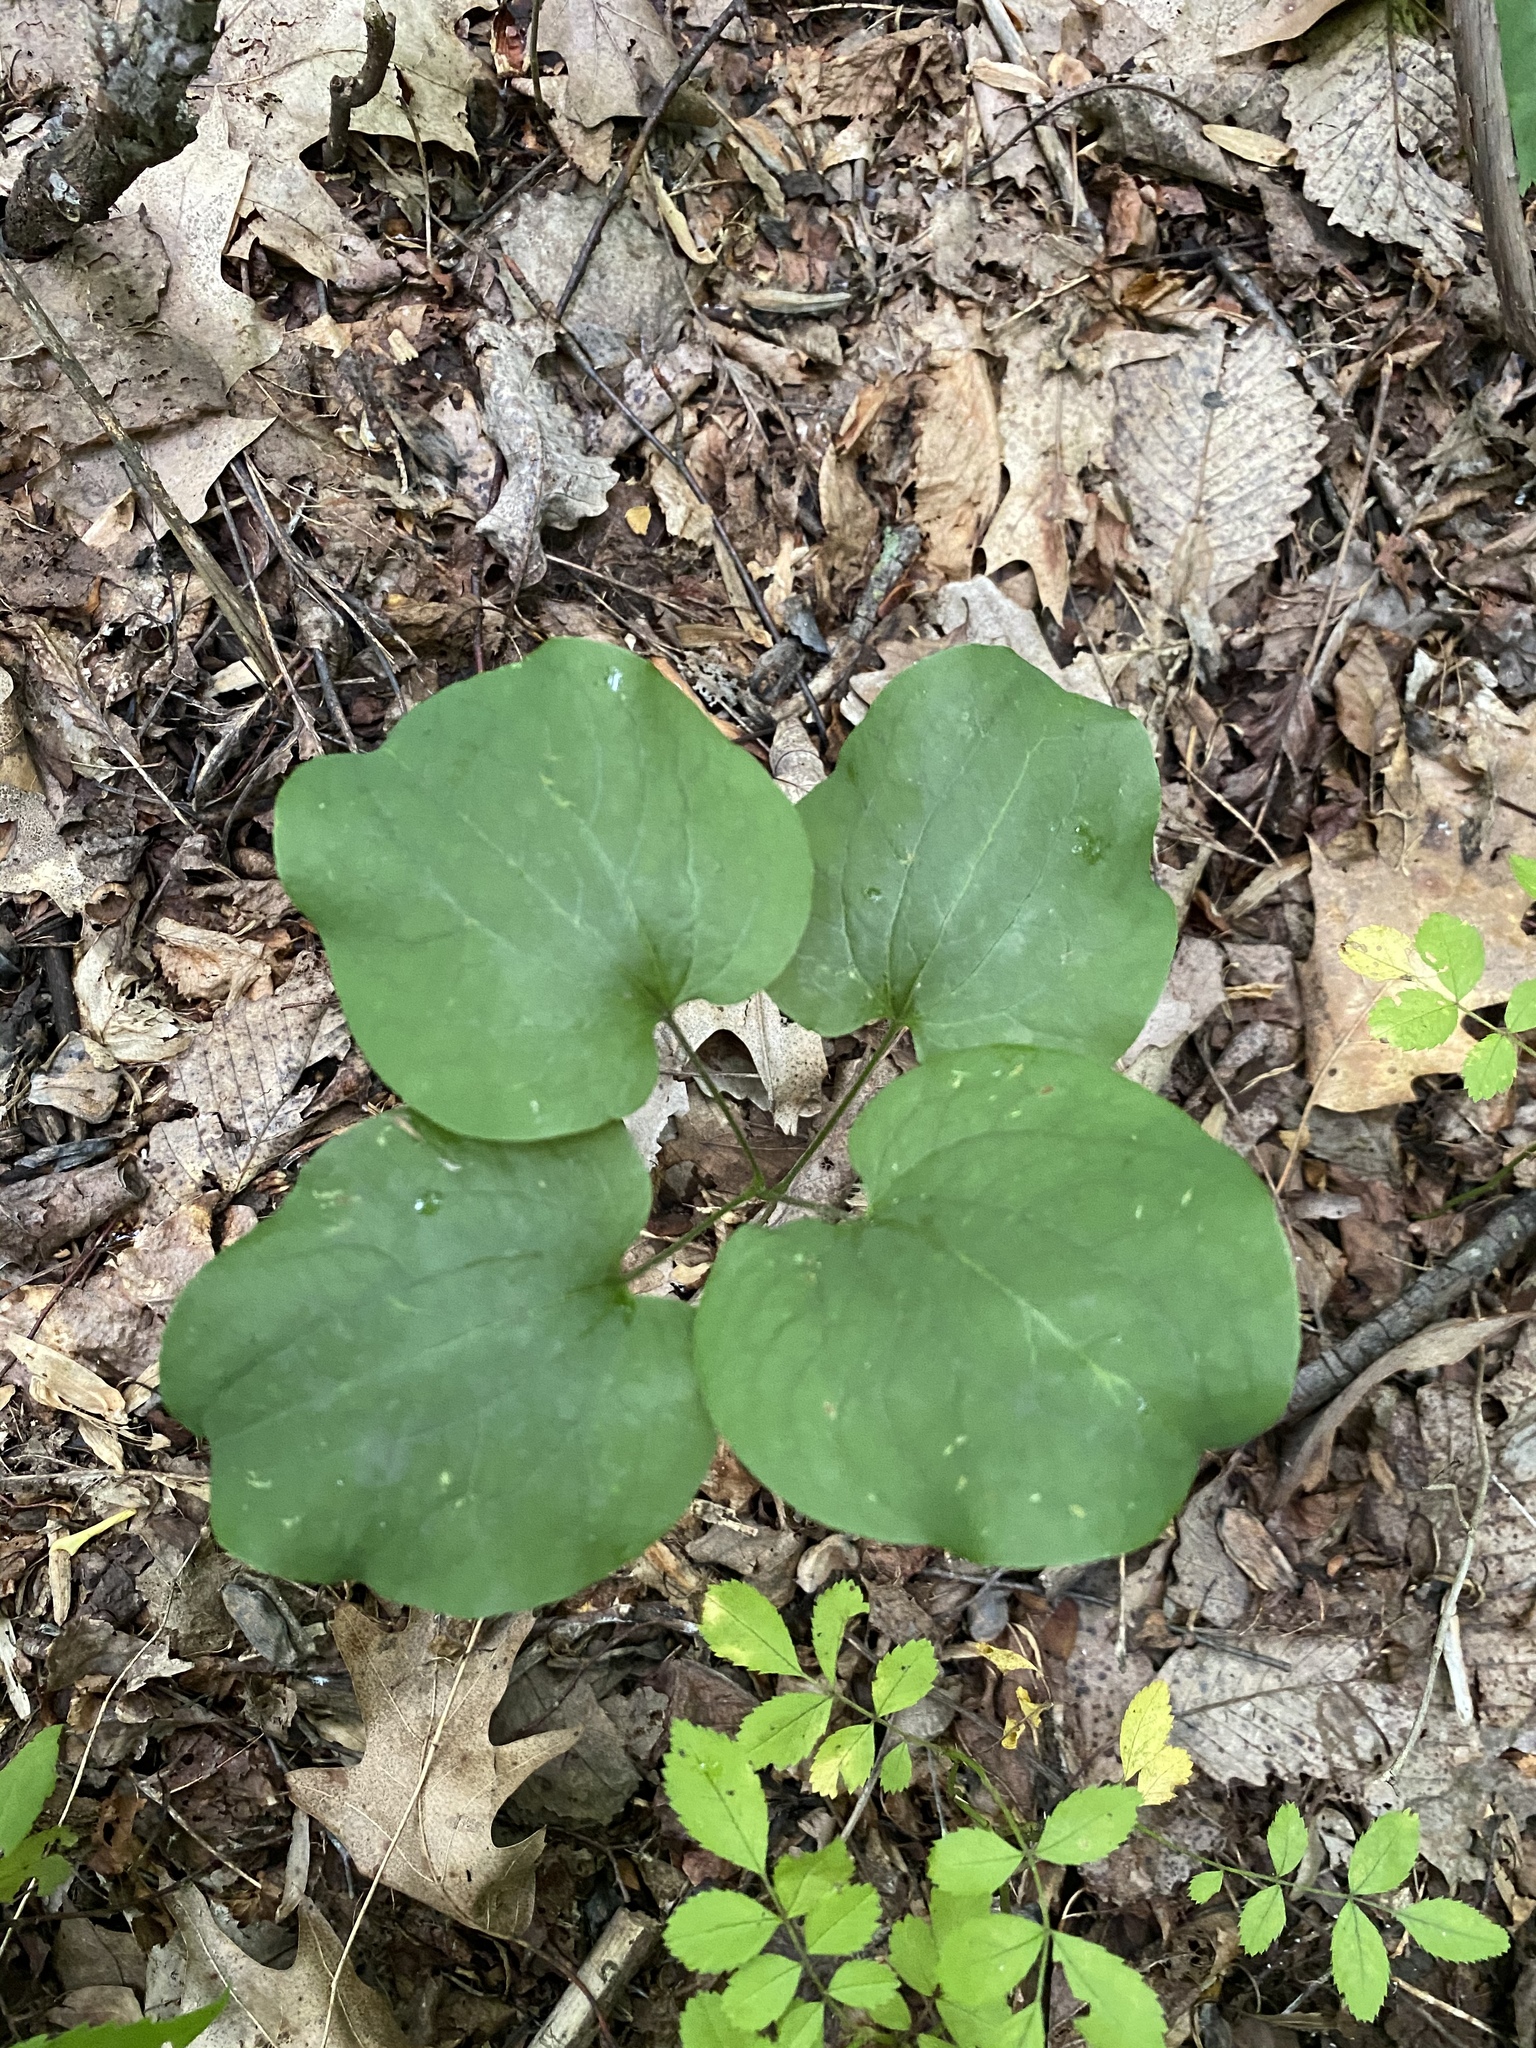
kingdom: Plantae
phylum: Tracheophyta
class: Liliopsida
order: Liliales
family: Smilacaceae
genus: Smilax
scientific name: Smilax herbacea
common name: Jacob's-ladder
